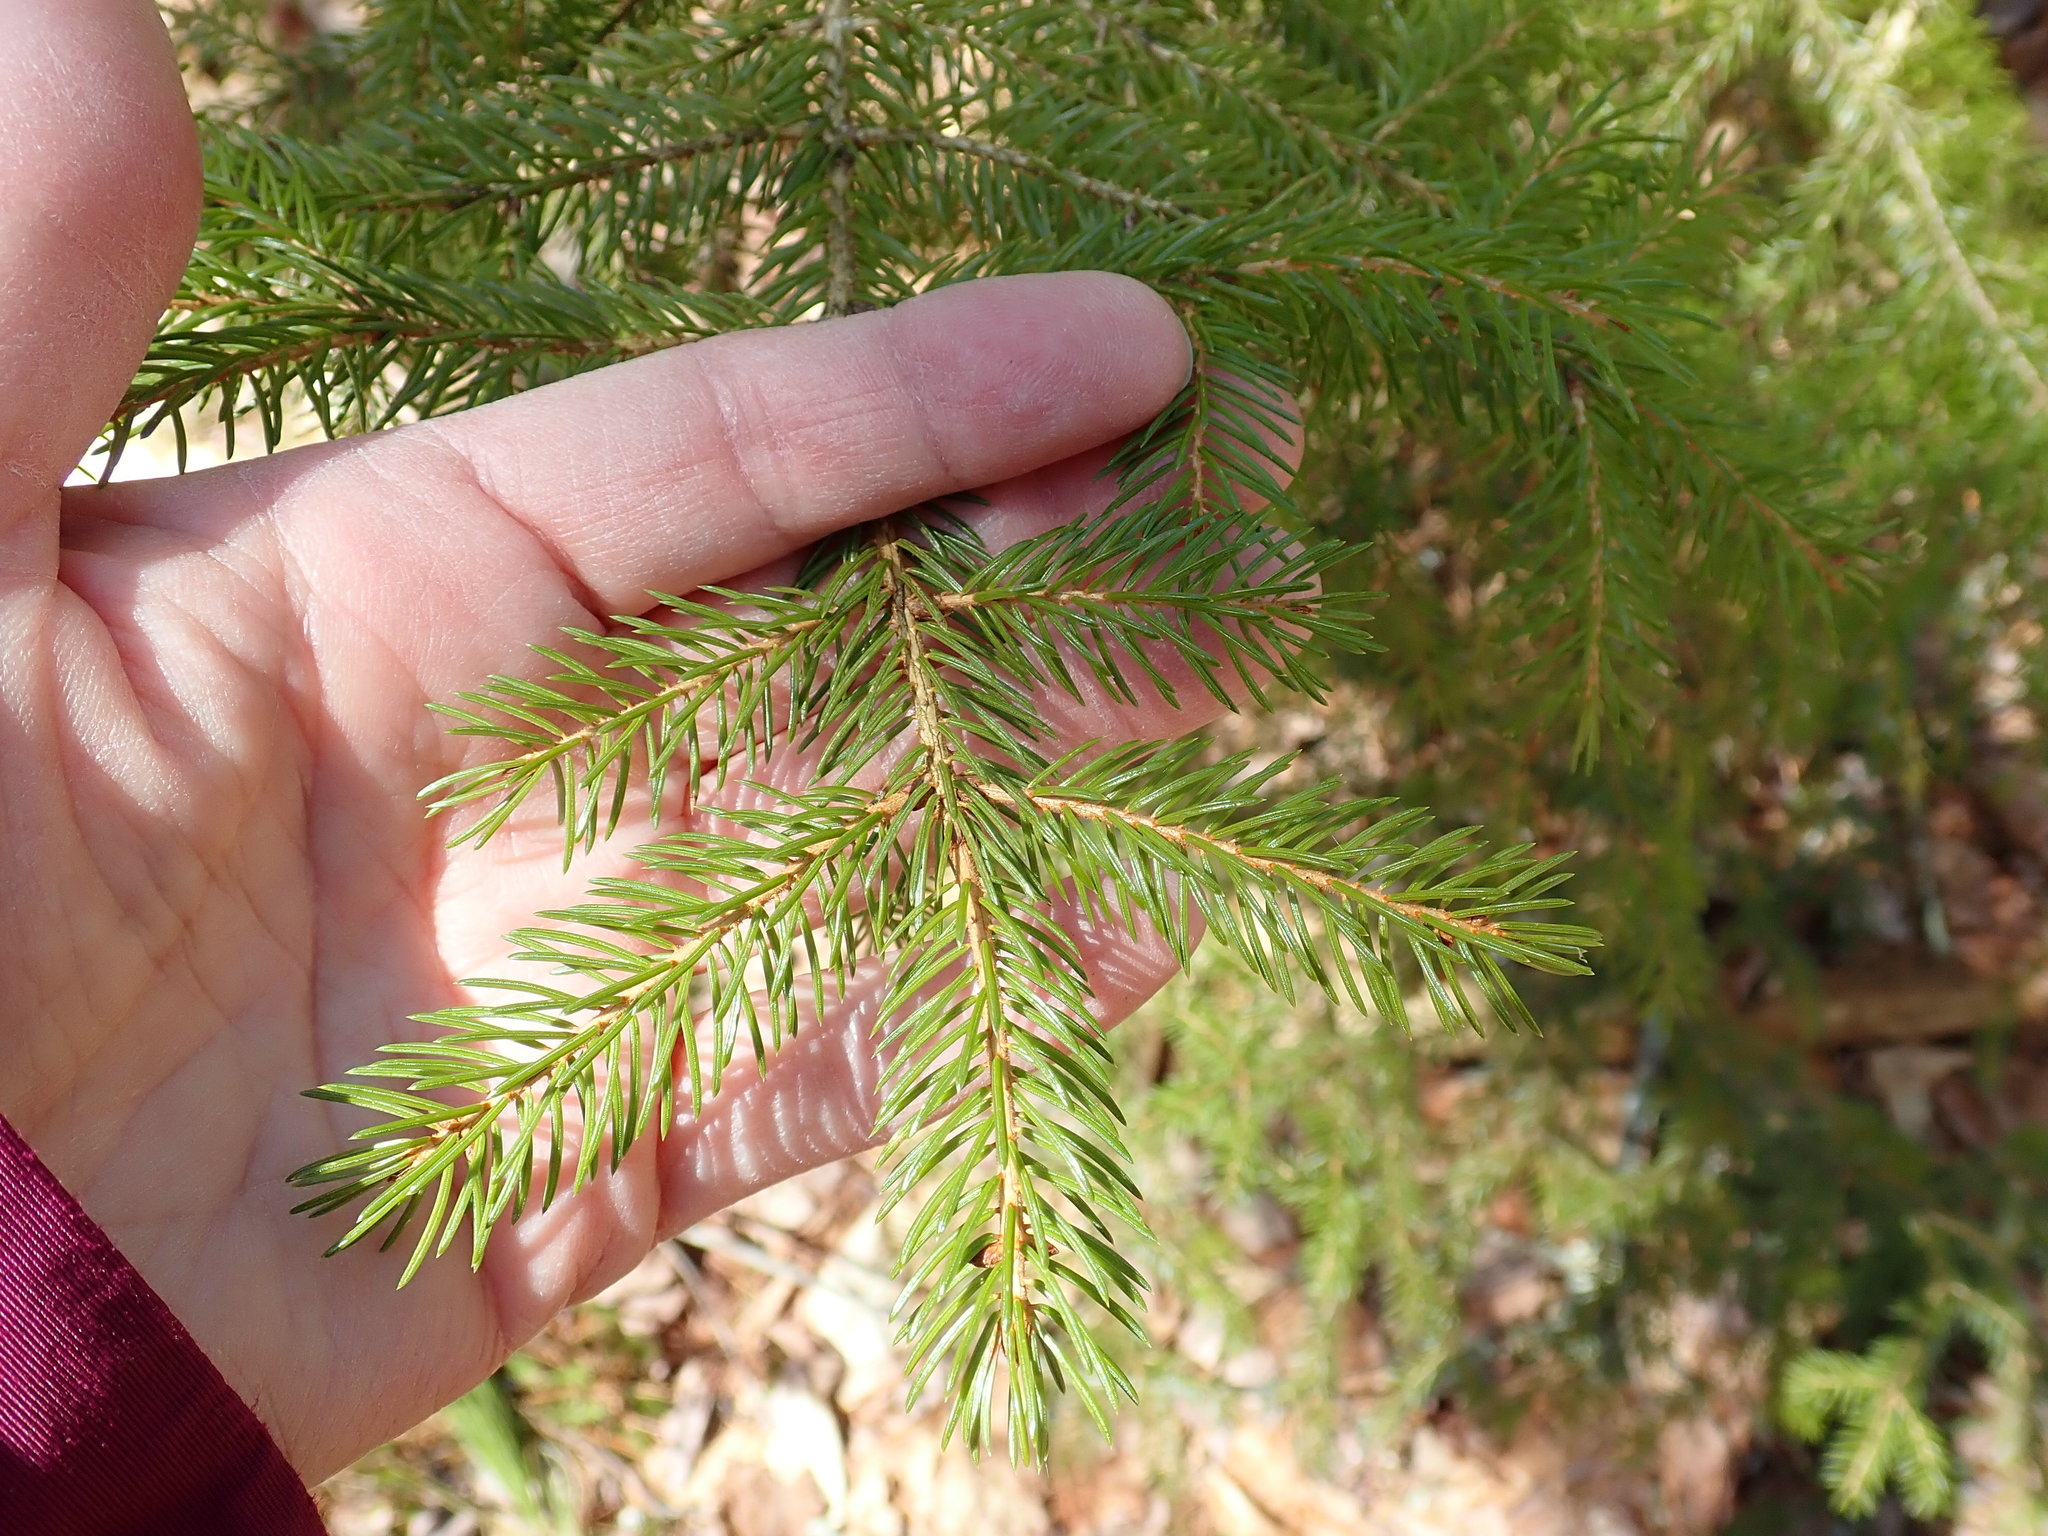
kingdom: Plantae
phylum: Tracheophyta
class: Pinopsida
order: Pinales
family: Pinaceae
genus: Picea
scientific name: Picea rubens
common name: Red spruce
